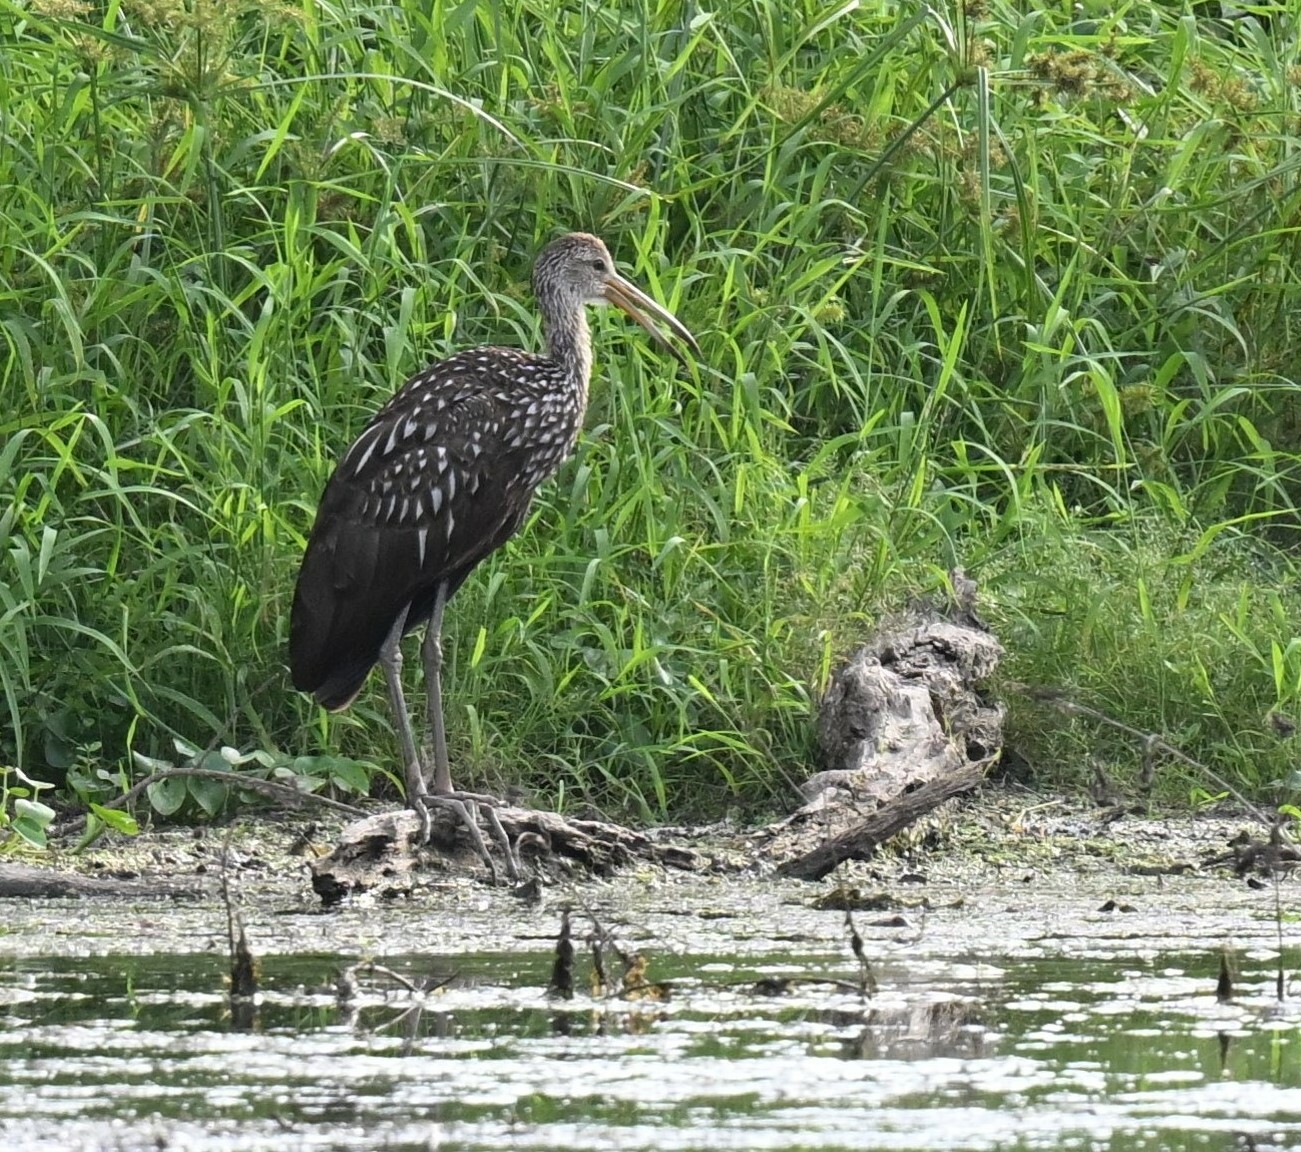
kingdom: Animalia
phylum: Chordata
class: Aves
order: Gruiformes
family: Aramidae
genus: Aramus
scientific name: Aramus guarauna
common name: Limpkin
